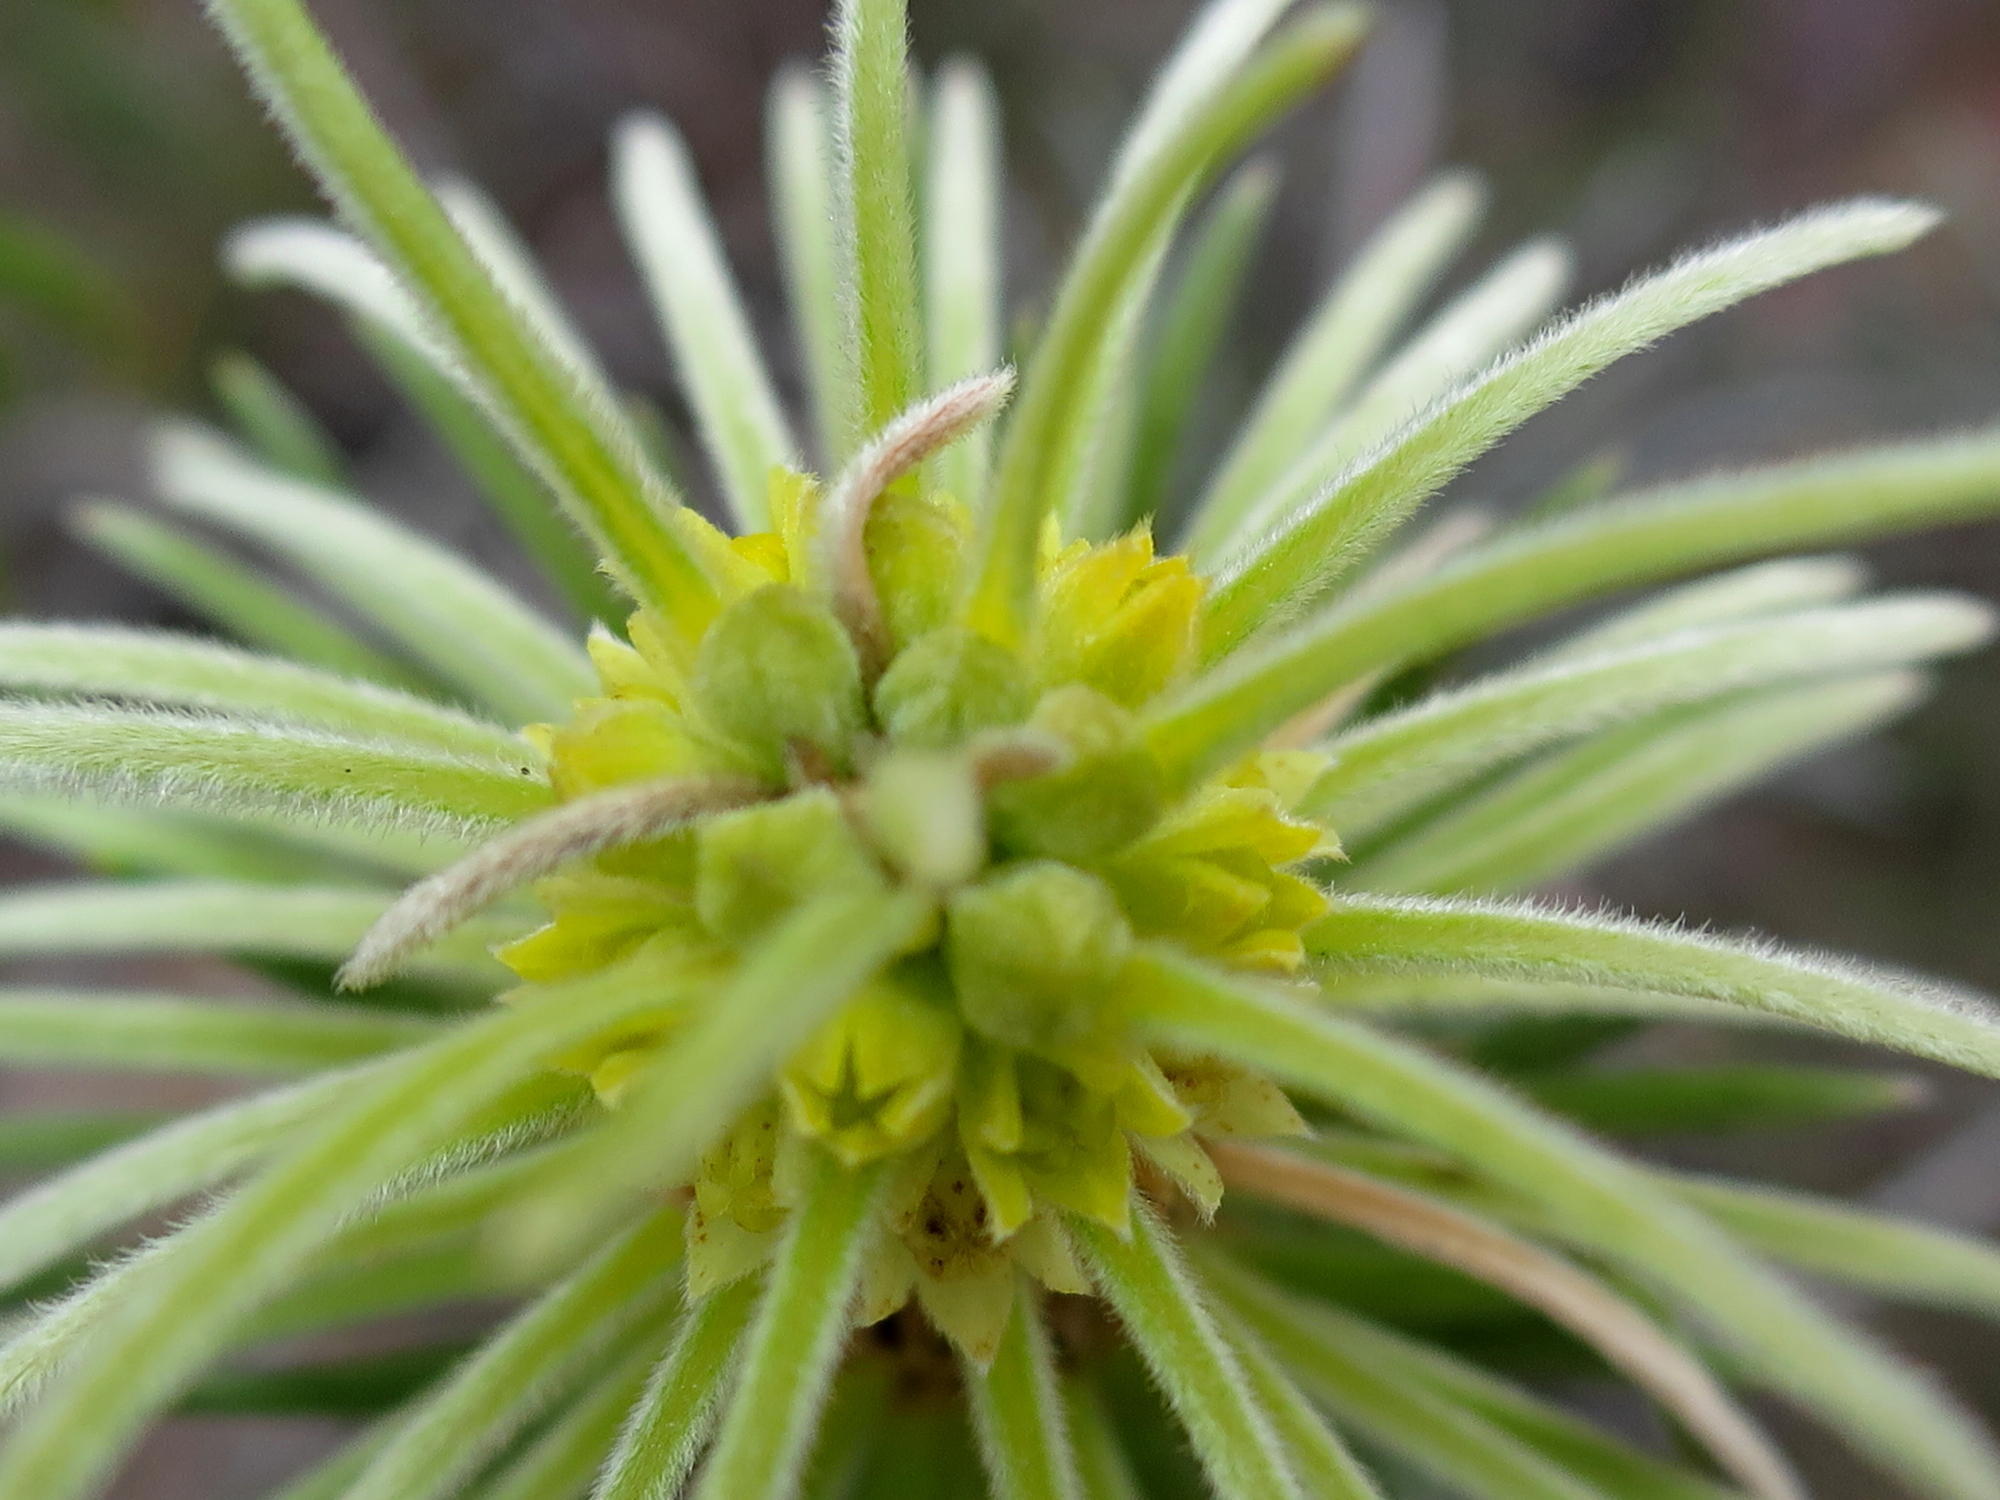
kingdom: Plantae
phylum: Tracheophyta
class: Magnoliopsida
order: Rosales
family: Rhamnaceae
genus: Phylica
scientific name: Phylica velutina
